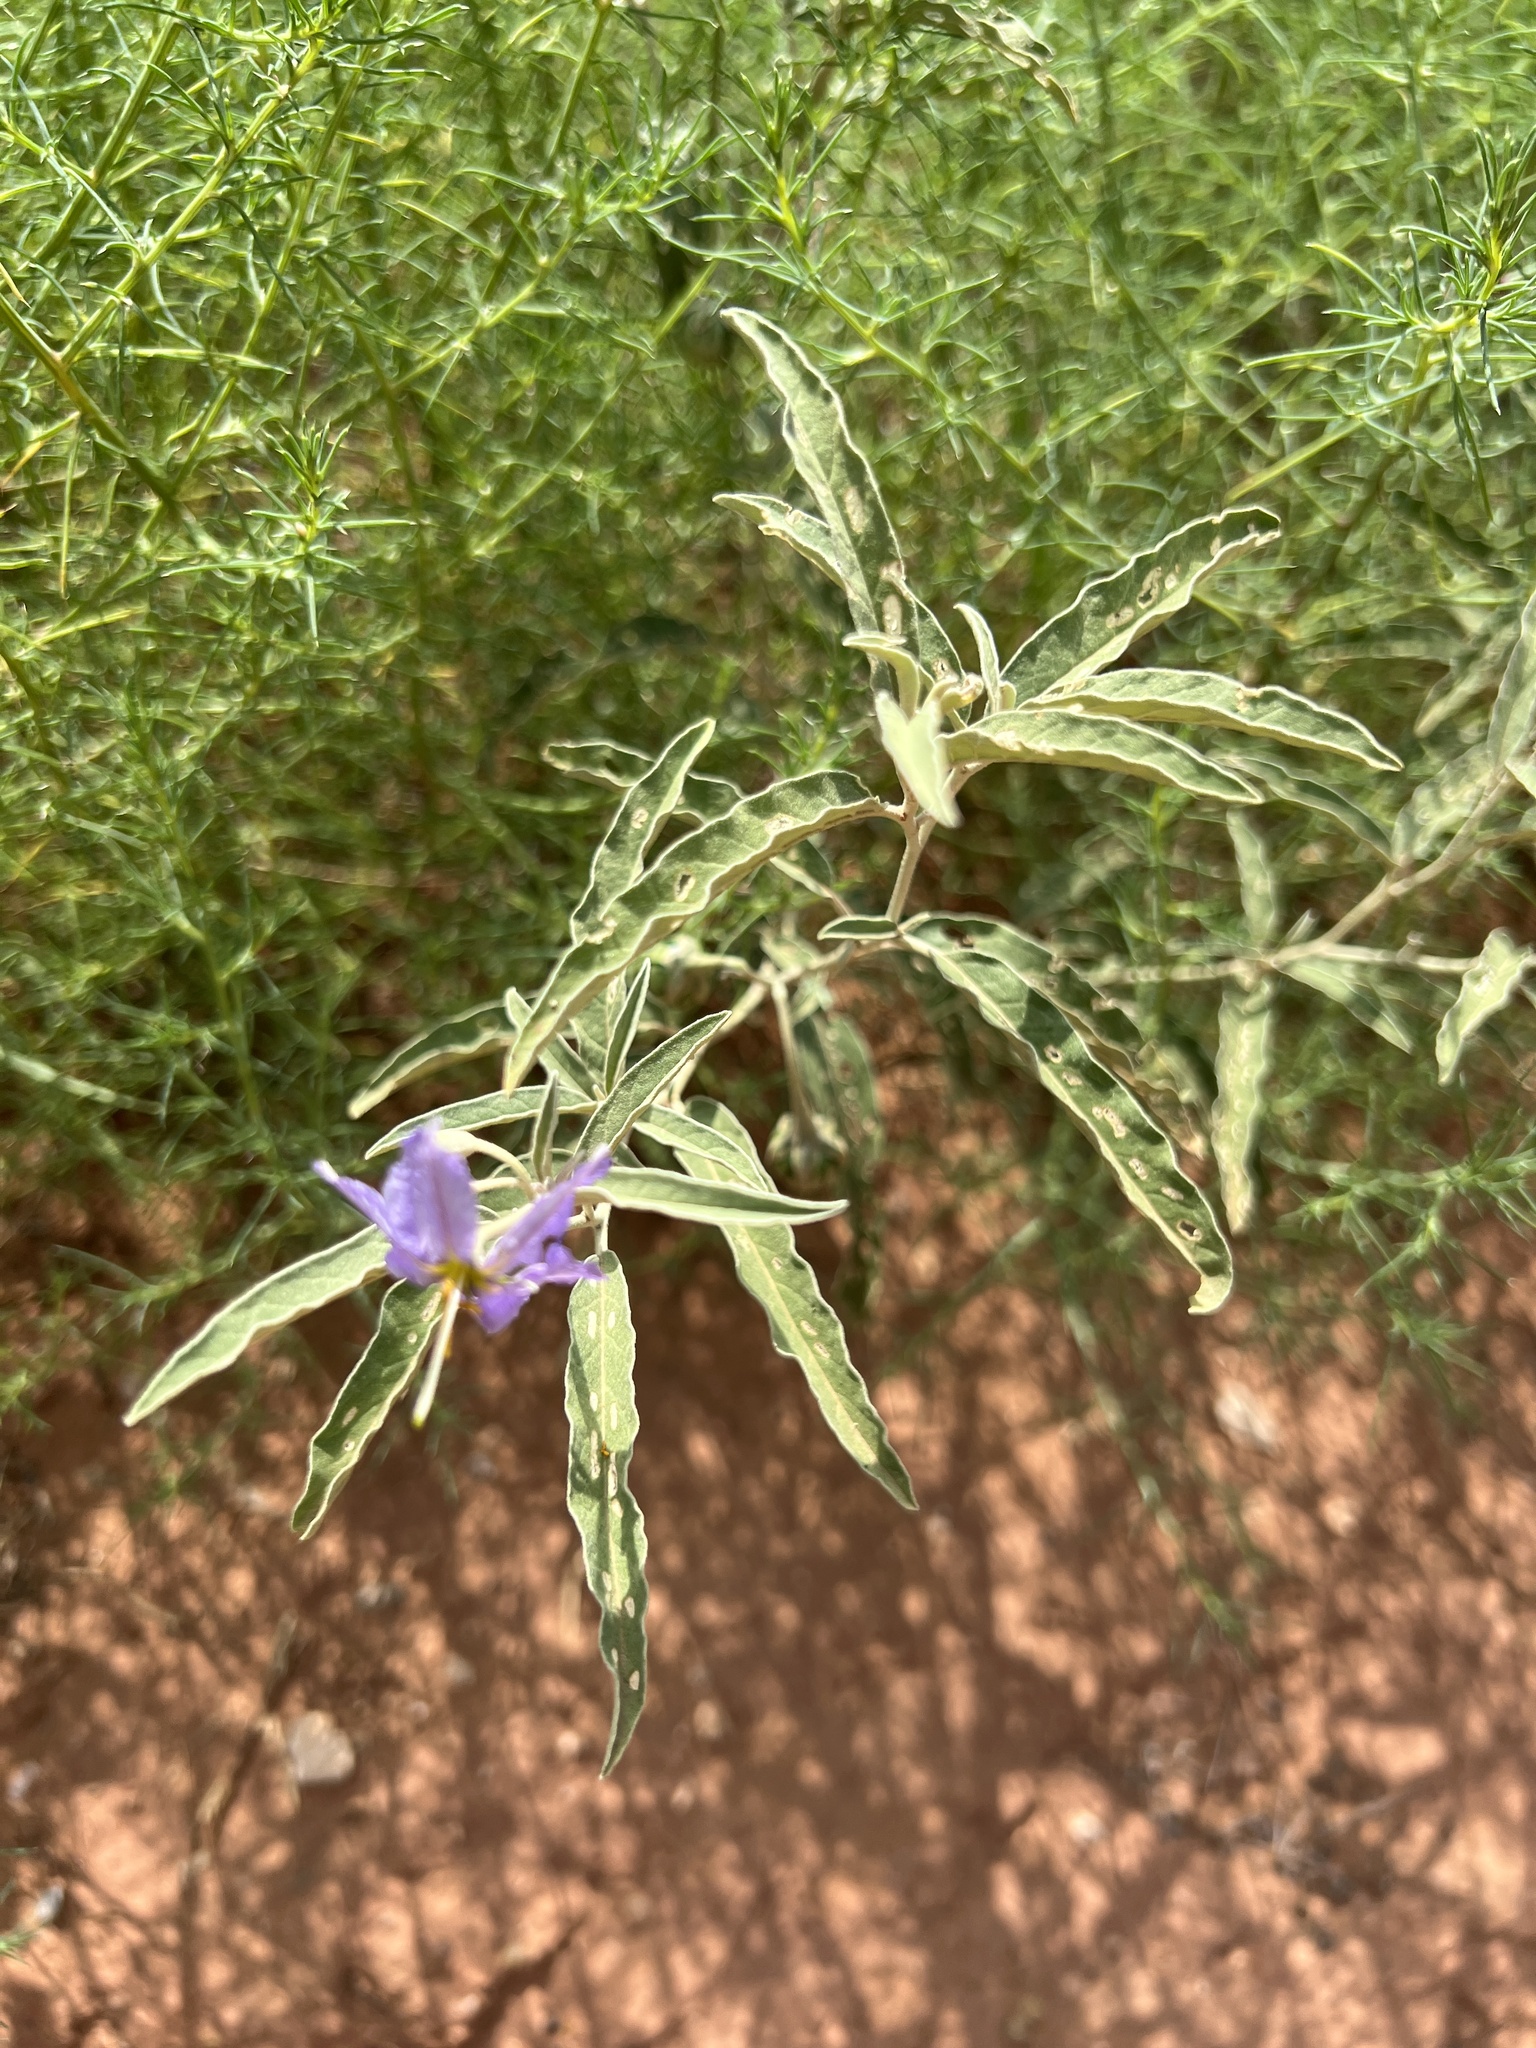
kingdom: Plantae
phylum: Tracheophyta
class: Magnoliopsida
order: Solanales
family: Solanaceae
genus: Solanum
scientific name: Solanum elaeagnifolium
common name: Silverleaf nightshade
